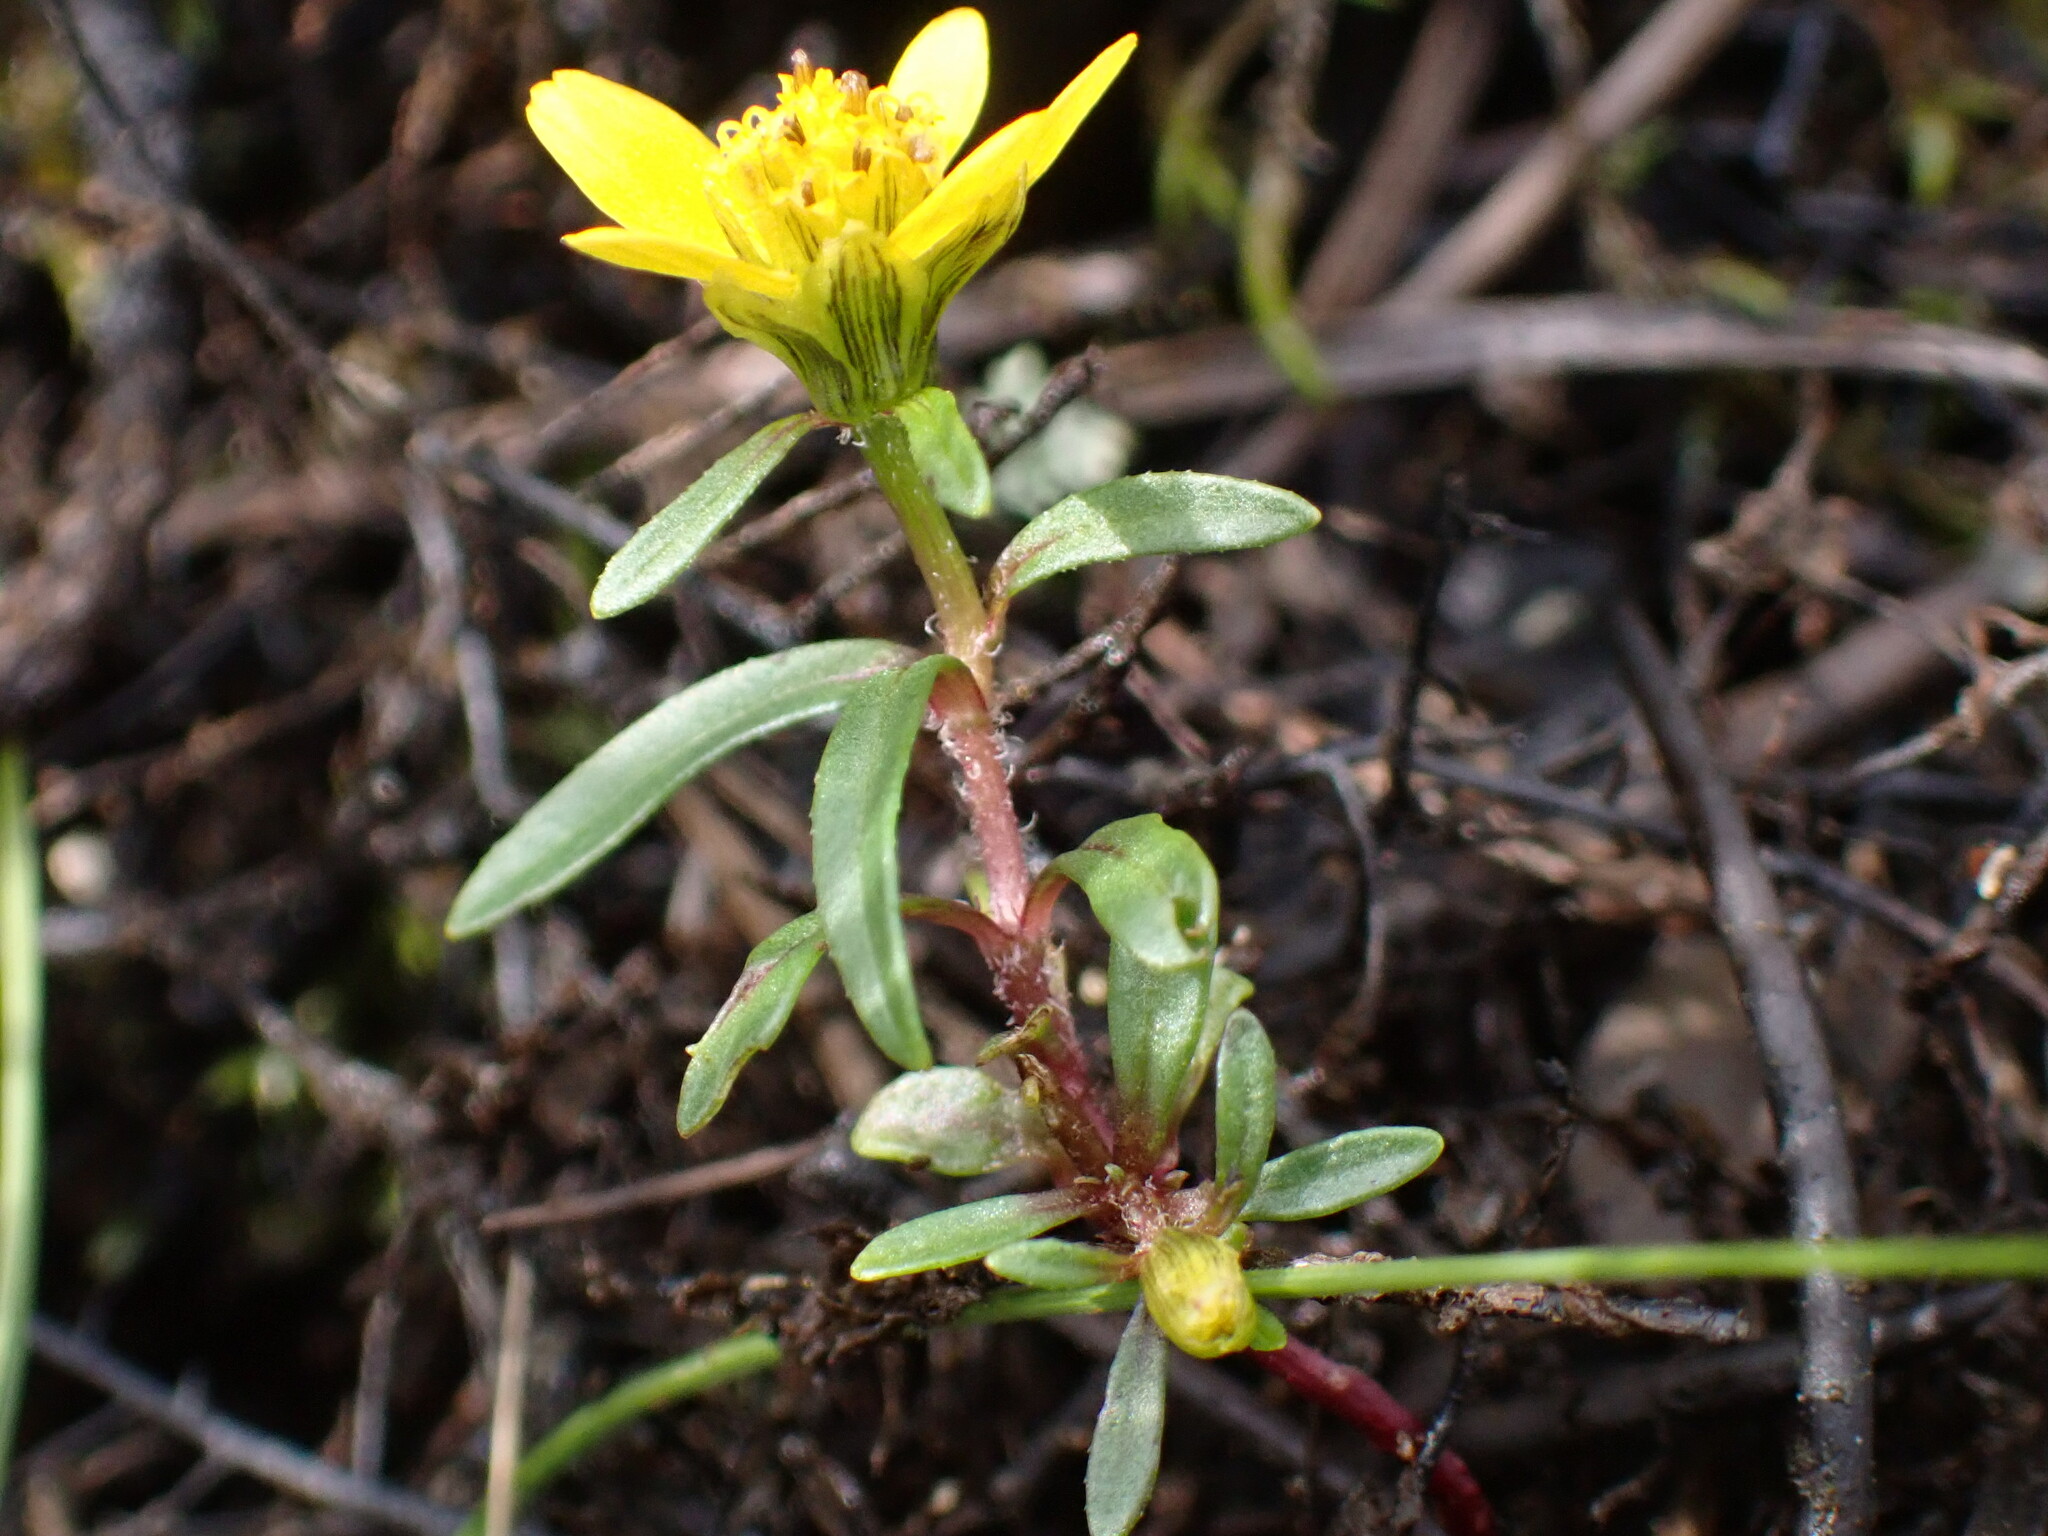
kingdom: Plantae
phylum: Tracheophyta
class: Magnoliopsida
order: Asterales
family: Asteraceae
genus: Bidens
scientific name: Bidens cernua
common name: Nodding bur-marigold
